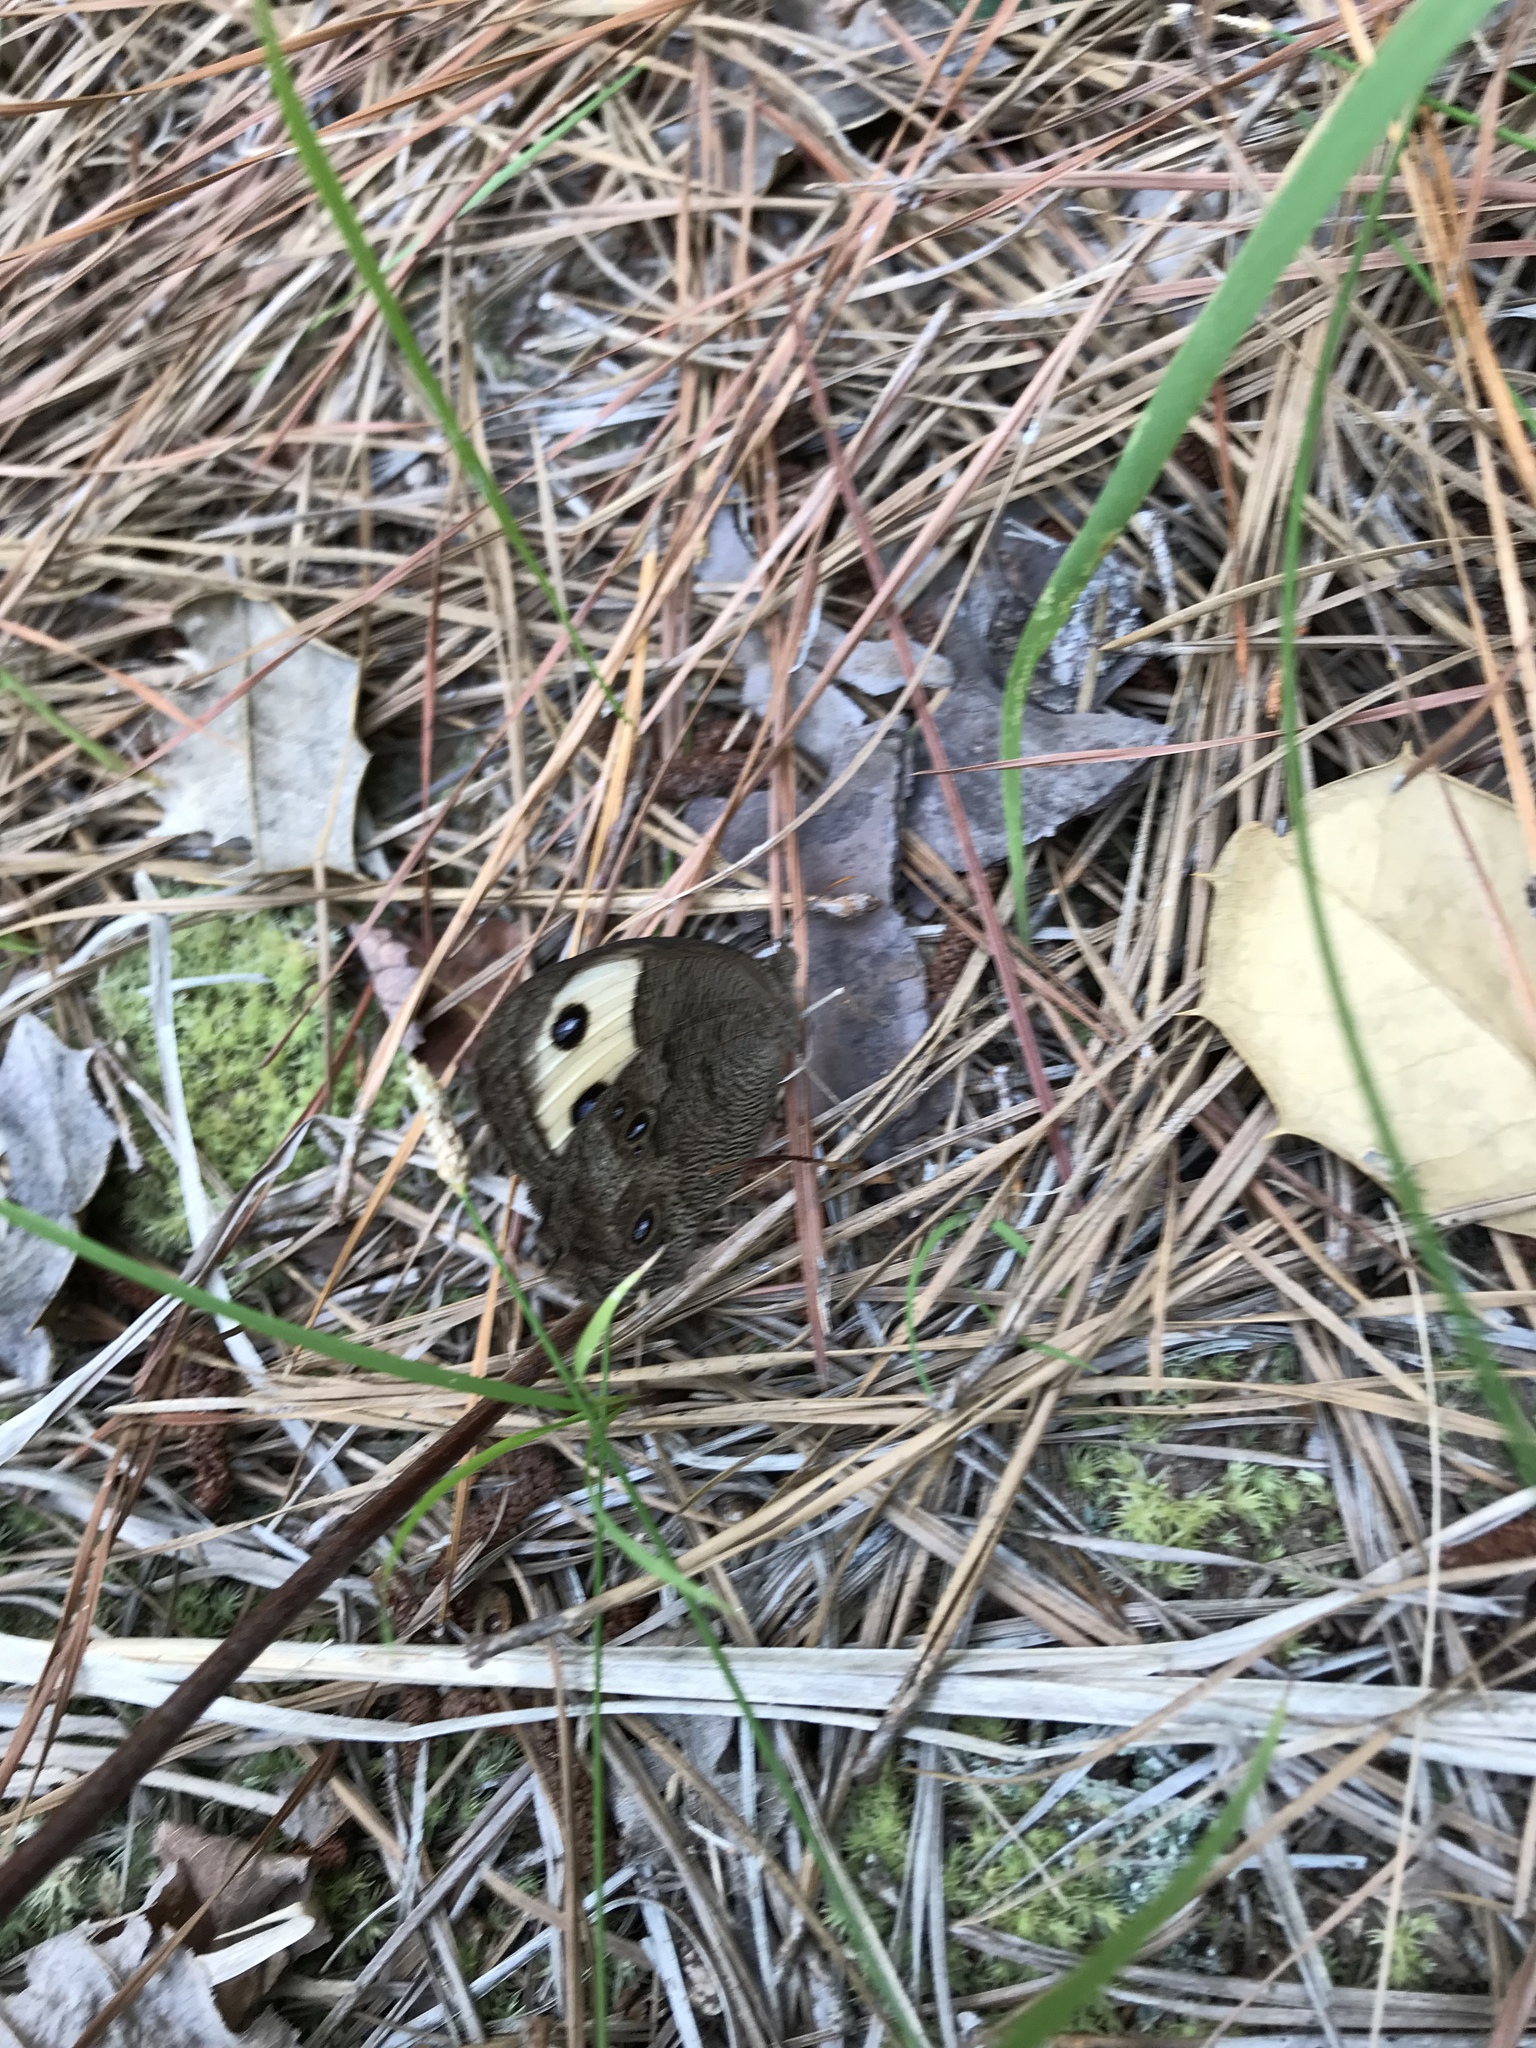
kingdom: Animalia
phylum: Arthropoda
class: Insecta
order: Lepidoptera
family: Nymphalidae
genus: Cercyonis
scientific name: Cercyonis pegala
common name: Common wood-nymph
